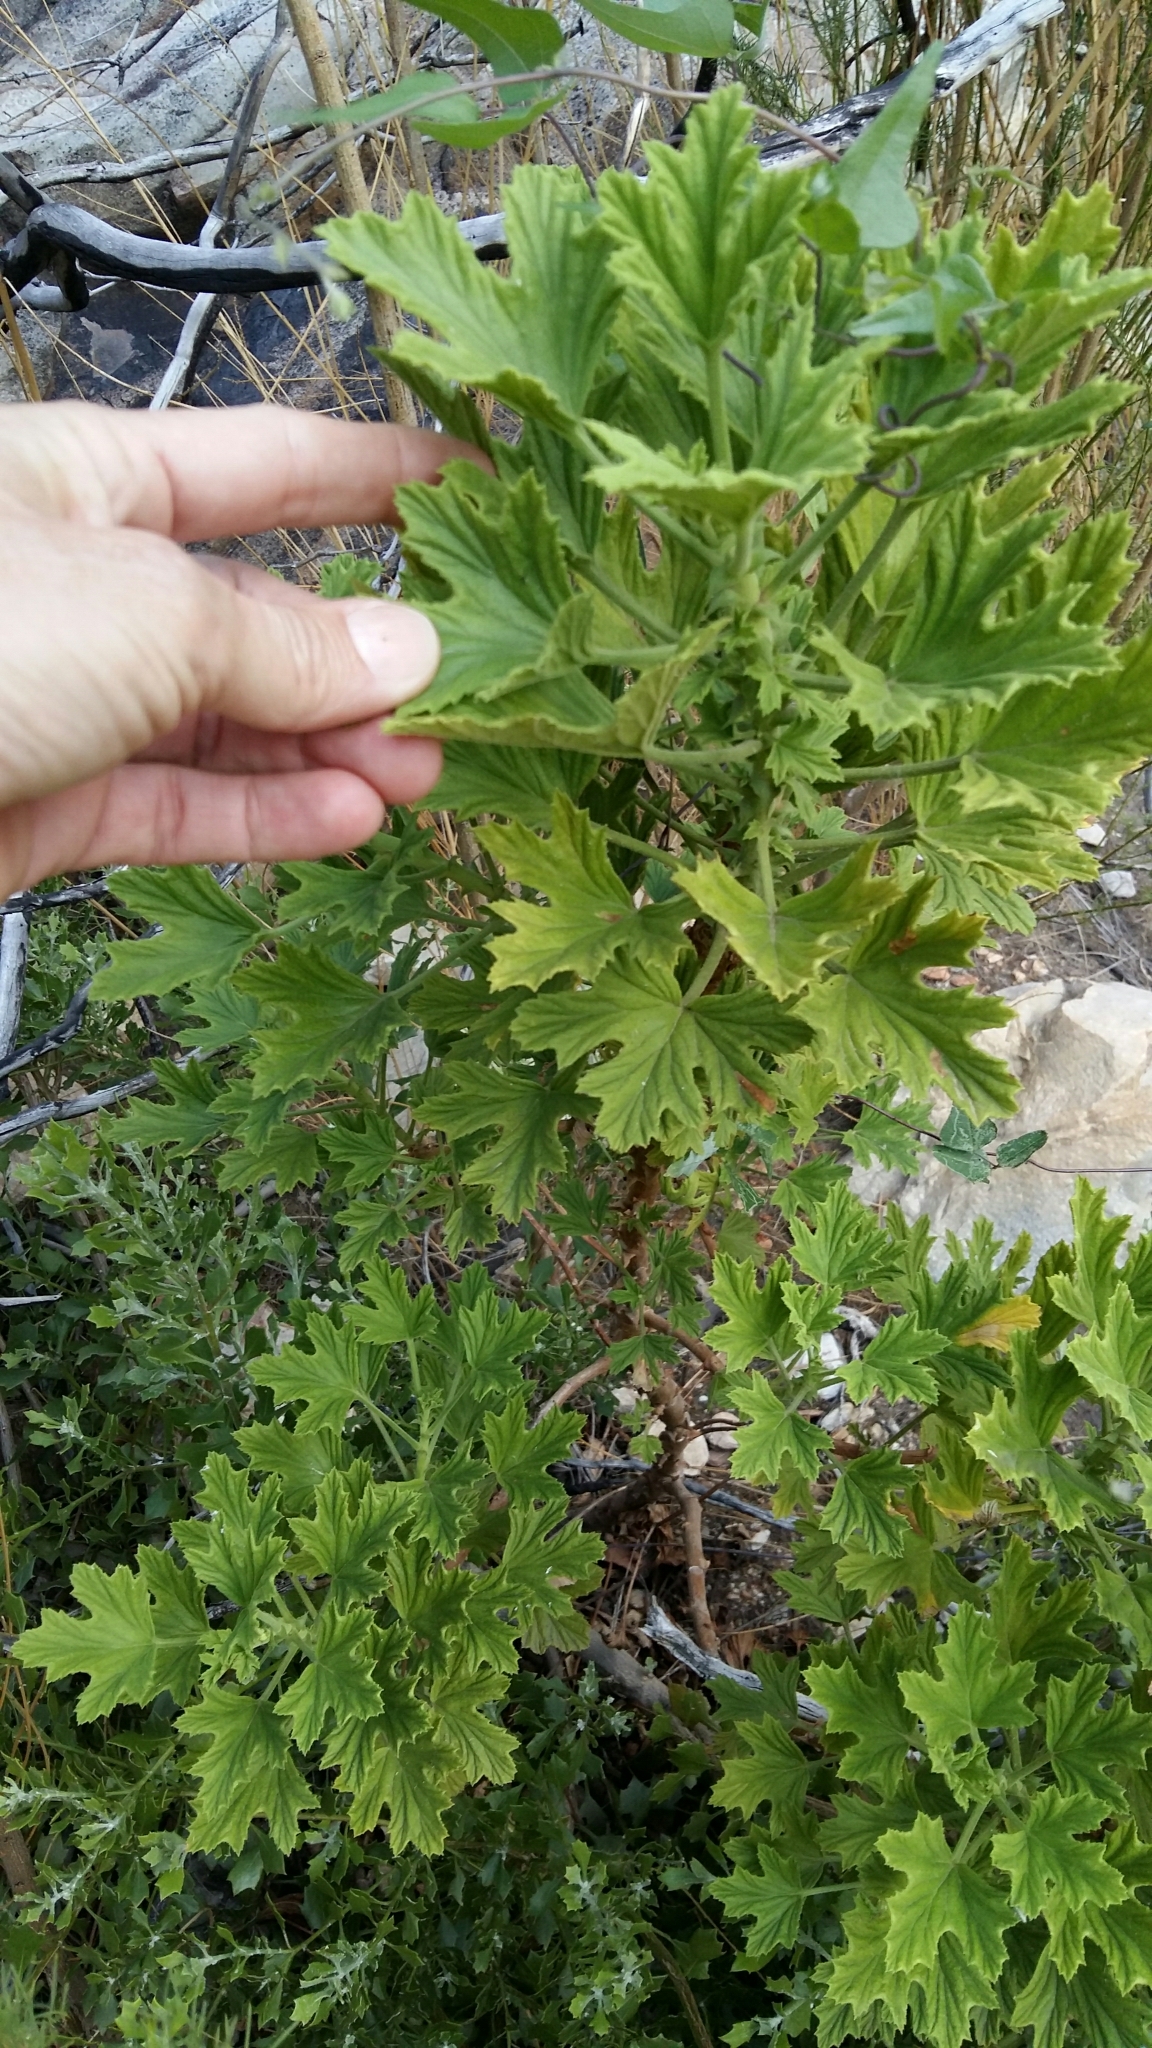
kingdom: Plantae
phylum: Tracheophyta
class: Magnoliopsida
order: Geraniales
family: Geraniaceae
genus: Pelargonium
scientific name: Pelargonium scabrum
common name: Apricot geranium
